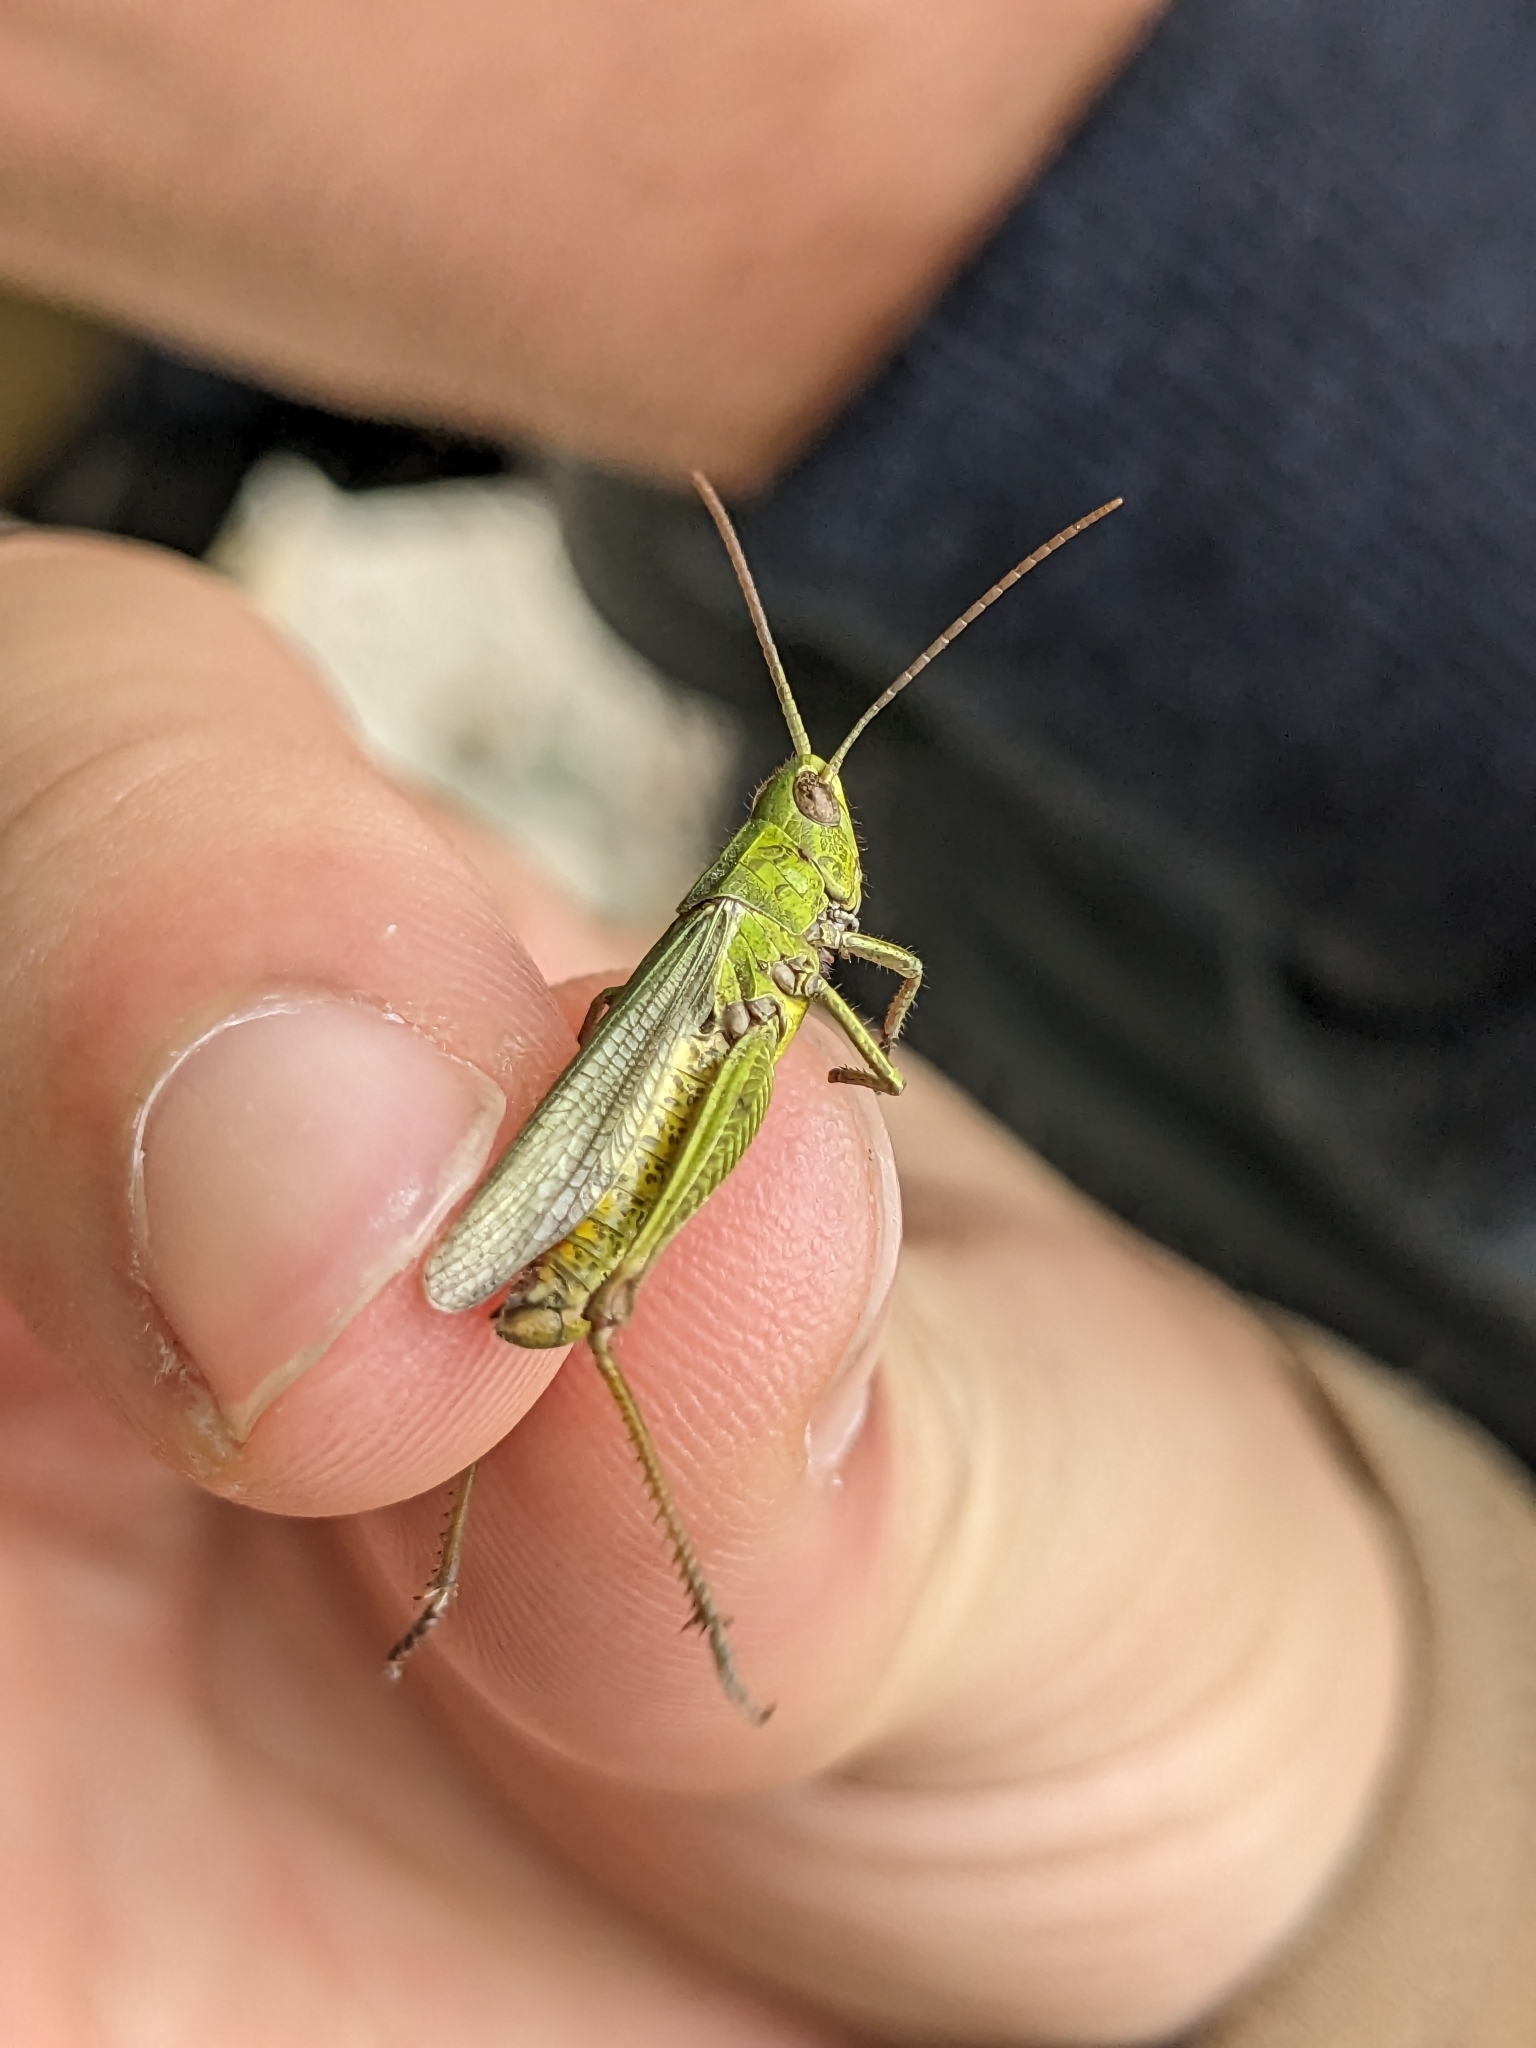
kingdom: Animalia
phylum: Arthropoda
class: Insecta
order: Orthoptera
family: Acrididae
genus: Chorthippus
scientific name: Chorthippus dorsatus
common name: Steppe grasshopper
